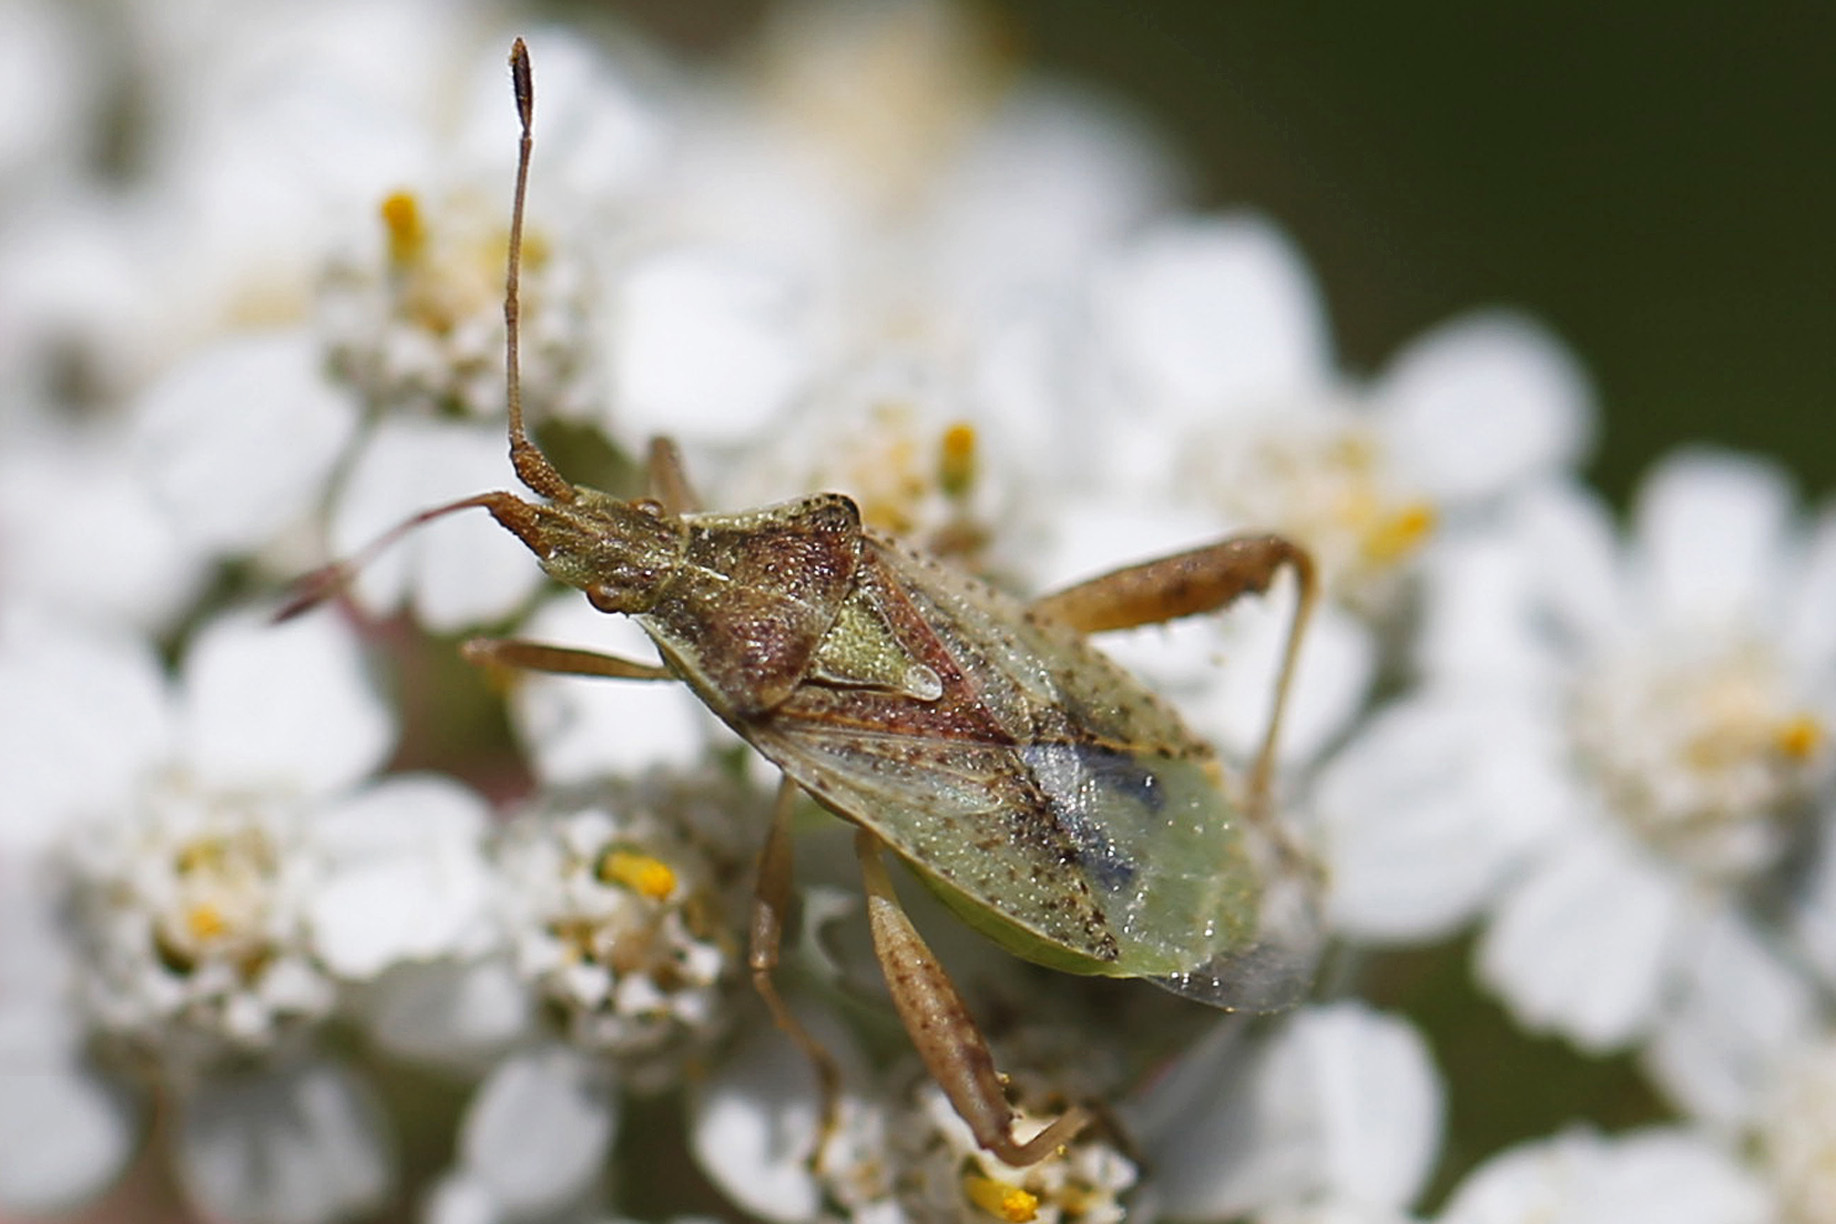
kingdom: Animalia
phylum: Arthropoda
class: Insecta
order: Hemiptera
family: Rhopalidae
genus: Harmostes
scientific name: Harmostes reflexulus
